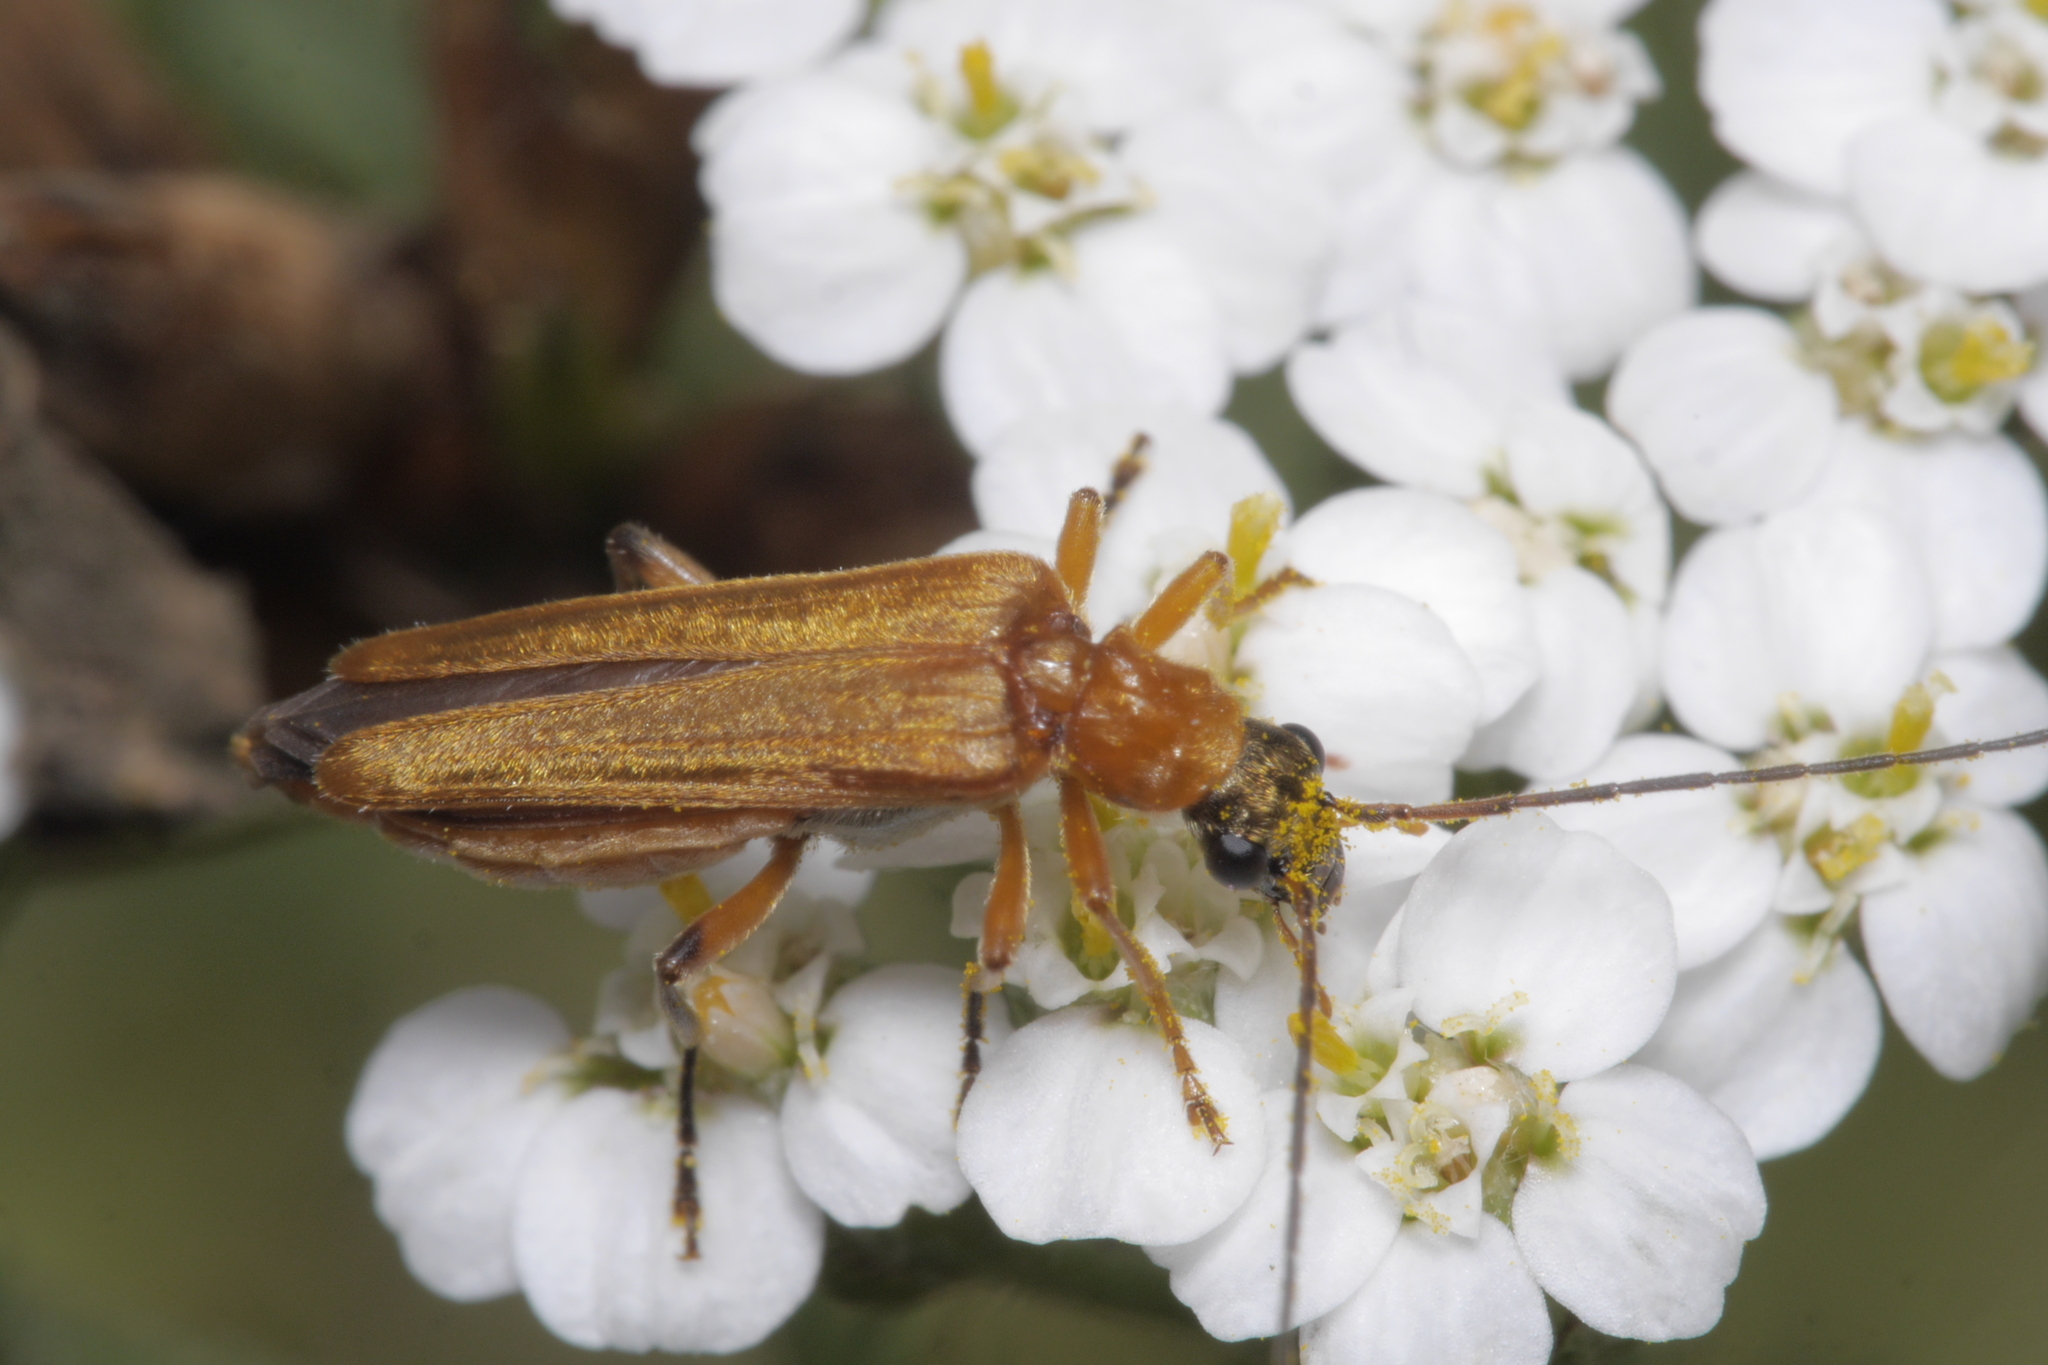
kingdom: Animalia
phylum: Arthropoda
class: Insecta
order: Coleoptera
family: Oedemeridae
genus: Oedemera
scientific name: Oedemera podagrariae
